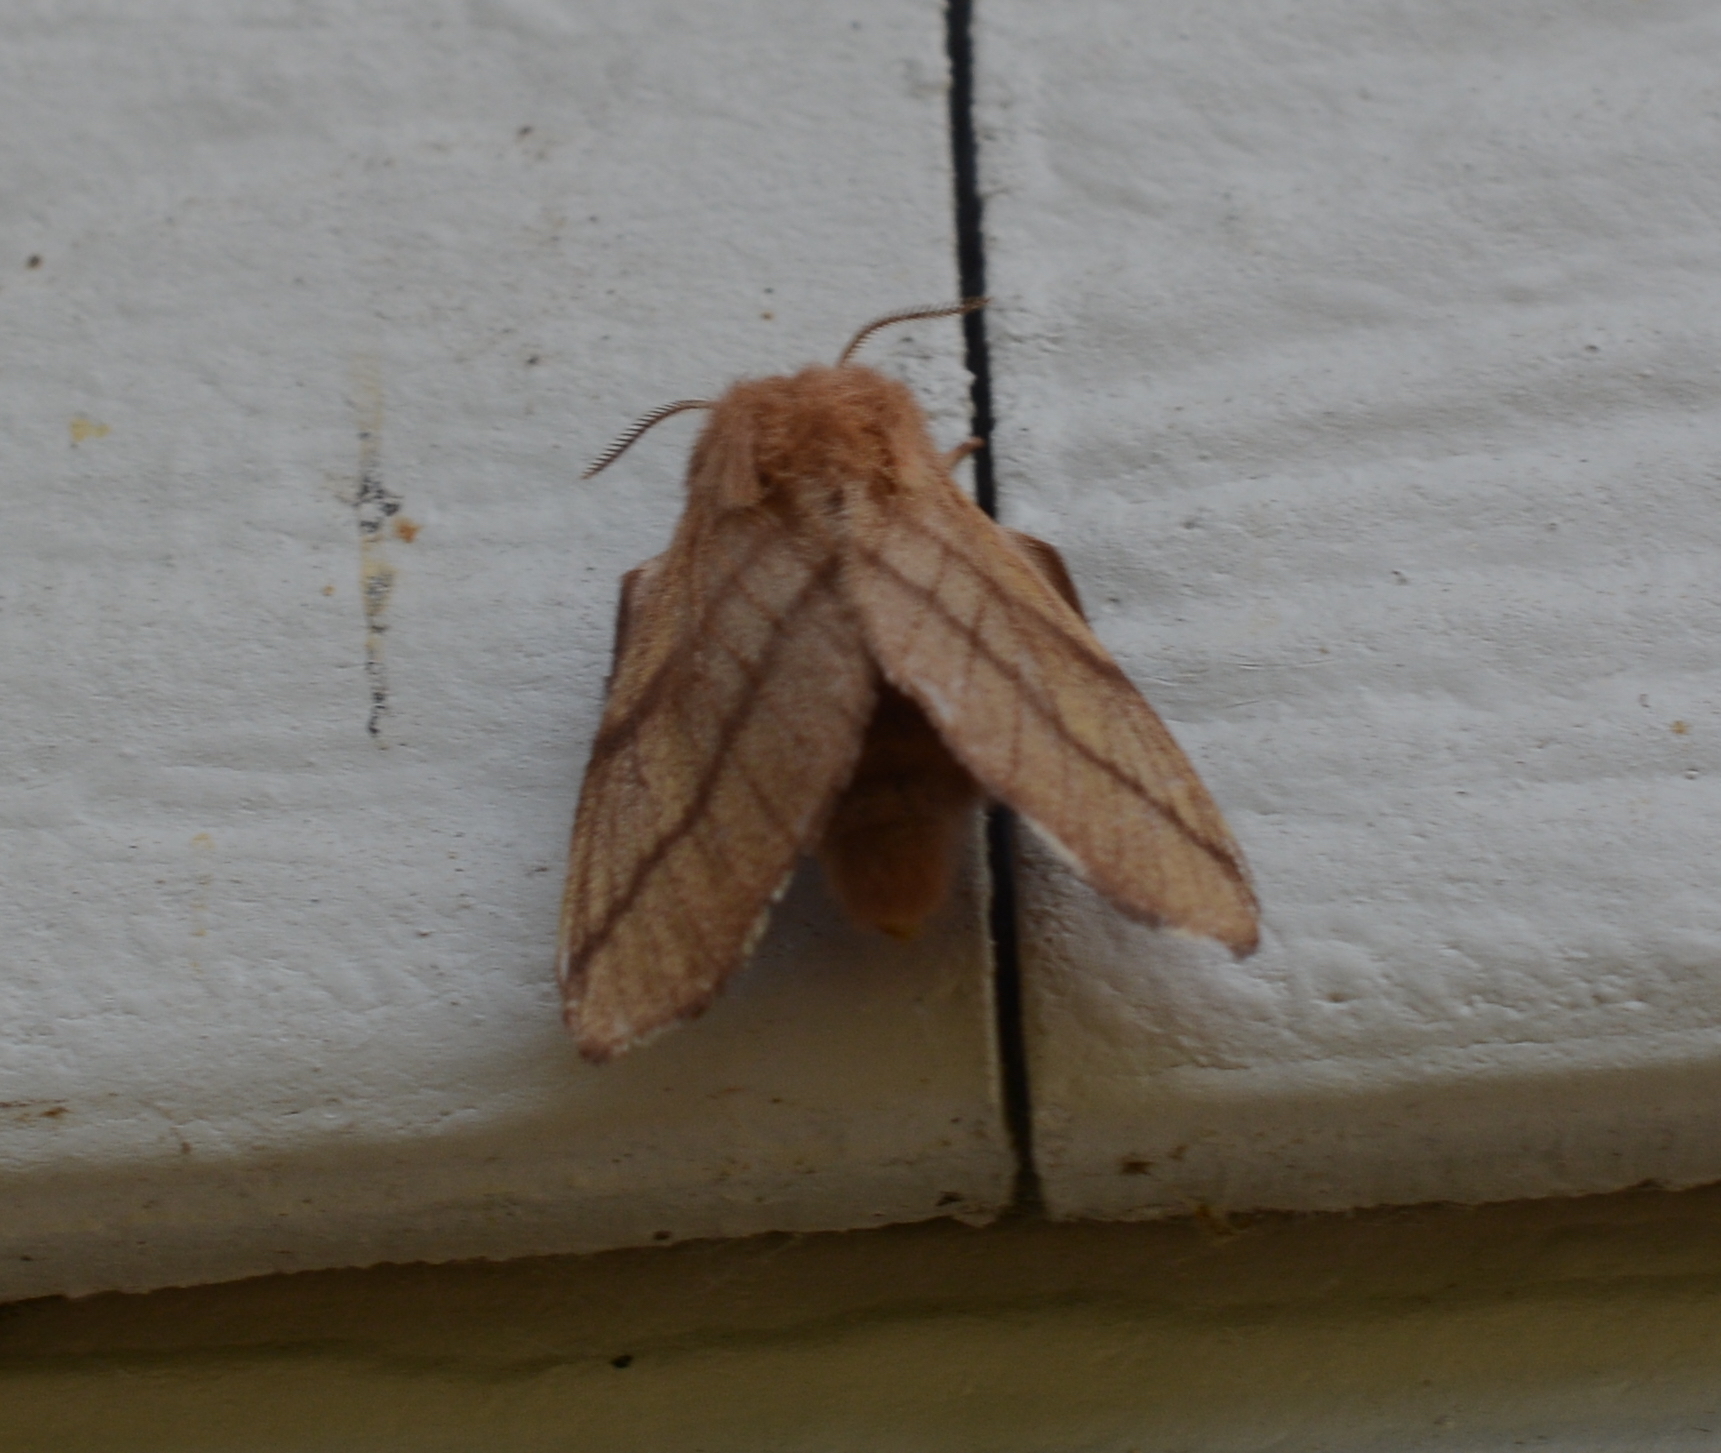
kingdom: Animalia
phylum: Arthropoda
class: Insecta
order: Lepidoptera
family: Lasiocampidae
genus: Malacosoma
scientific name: Malacosoma disstria
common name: Forest tent caterpillar
